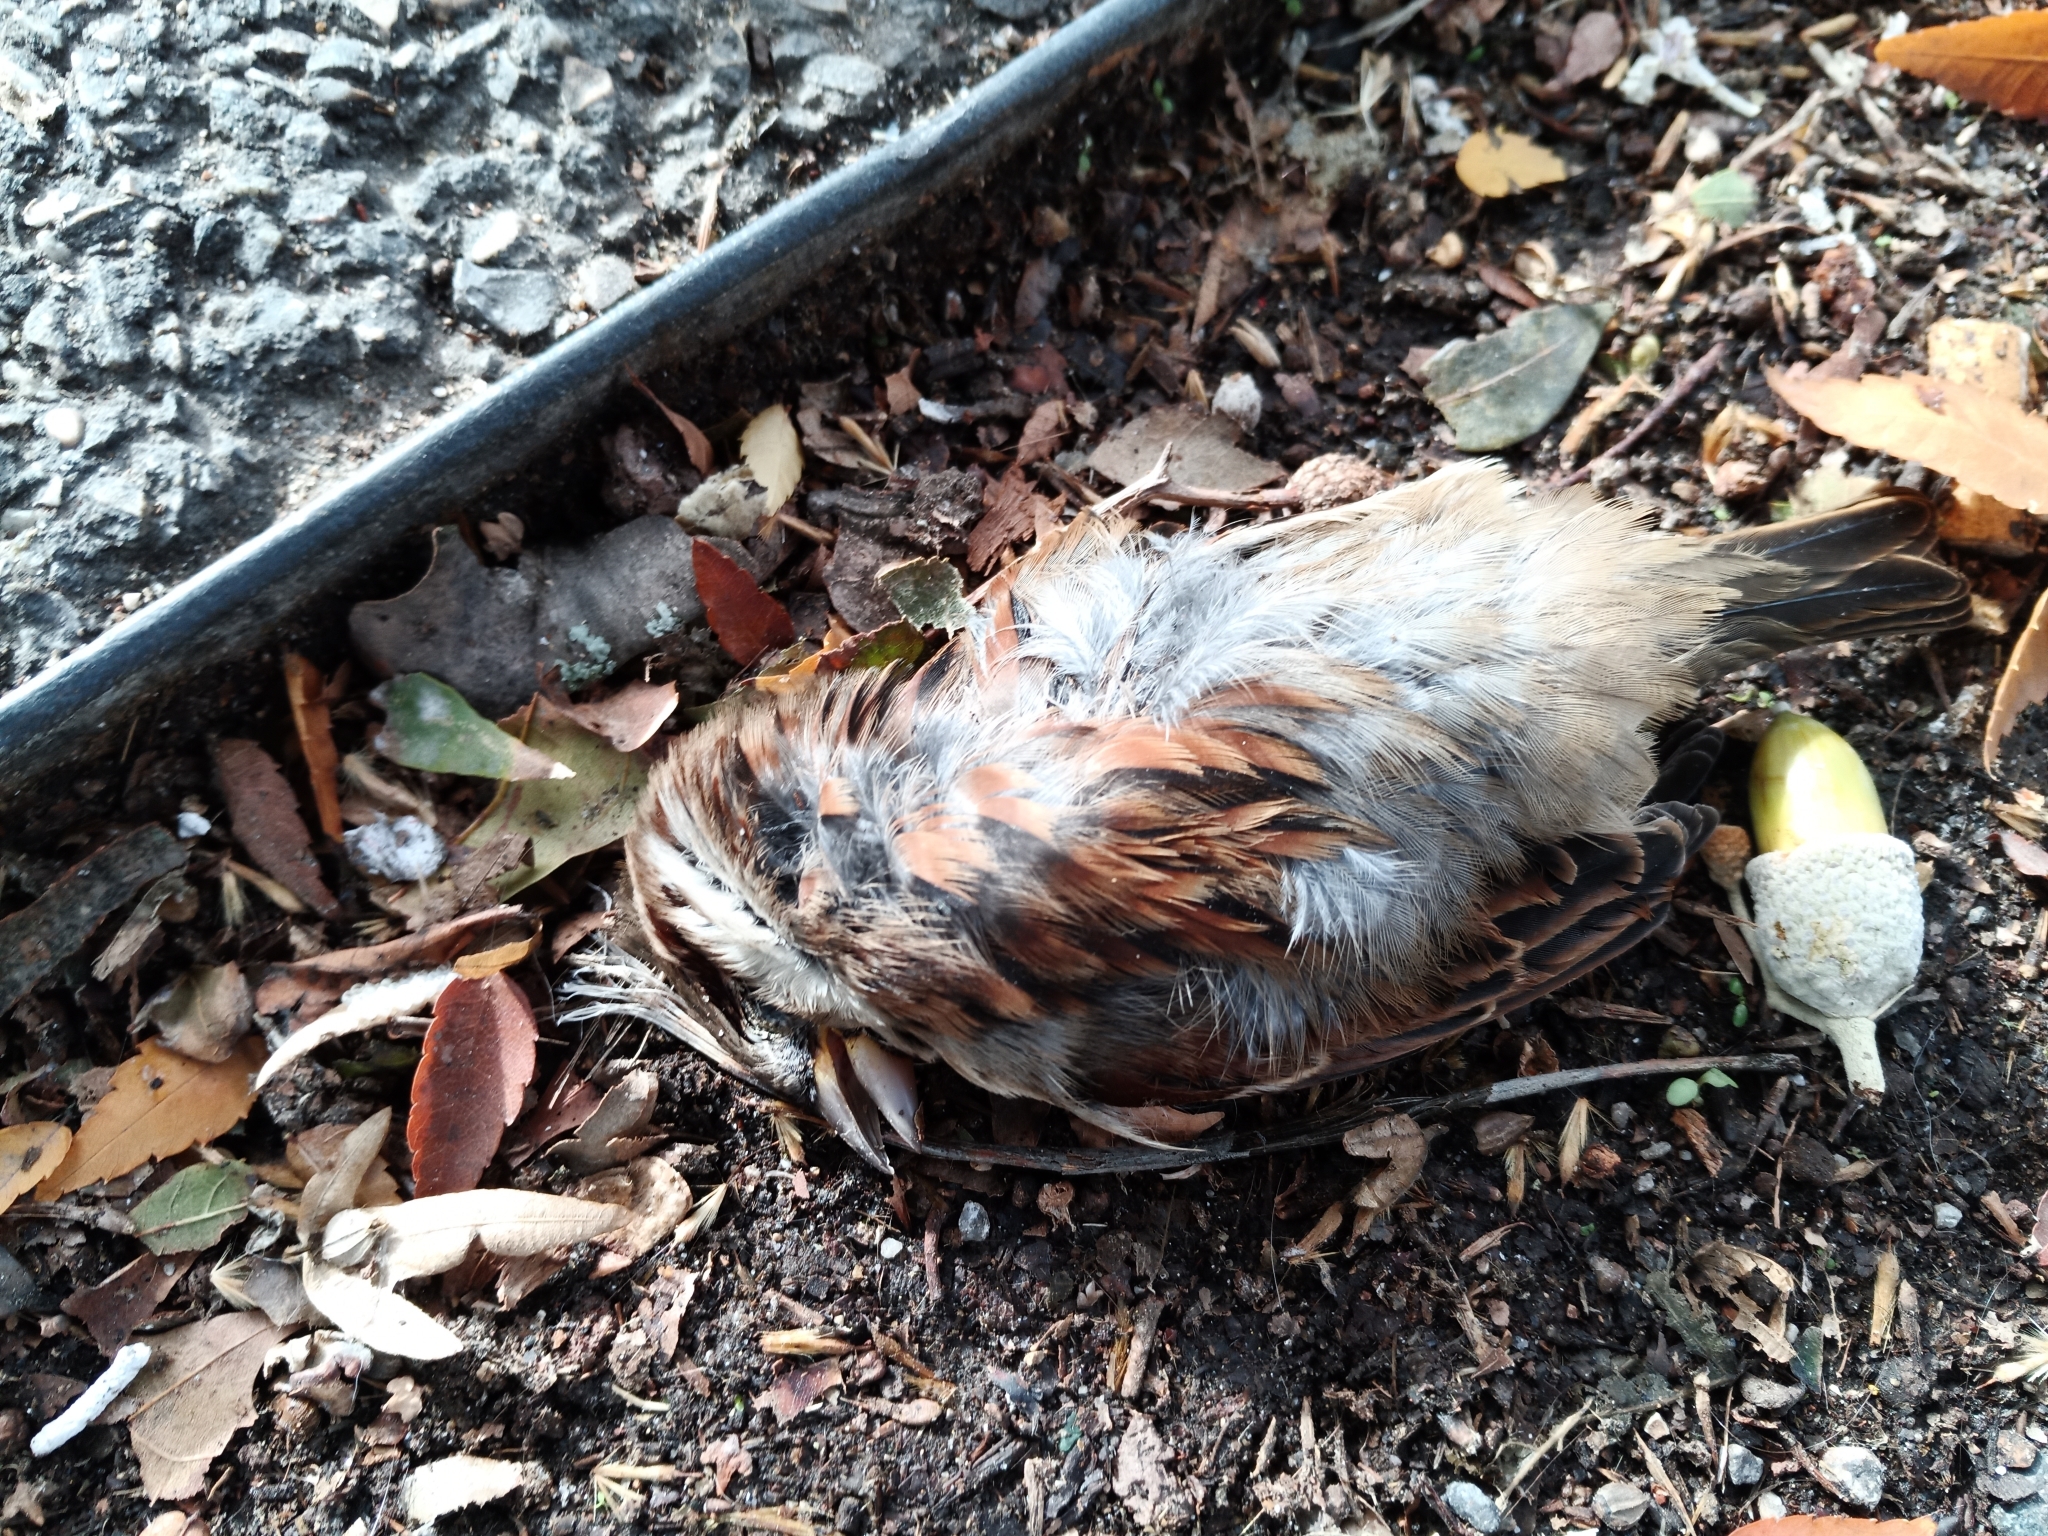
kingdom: Animalia
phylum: Chordata
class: Aves
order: Passeriformes
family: Passeridae
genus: Passer
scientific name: Passer domesticus
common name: House sparrow
